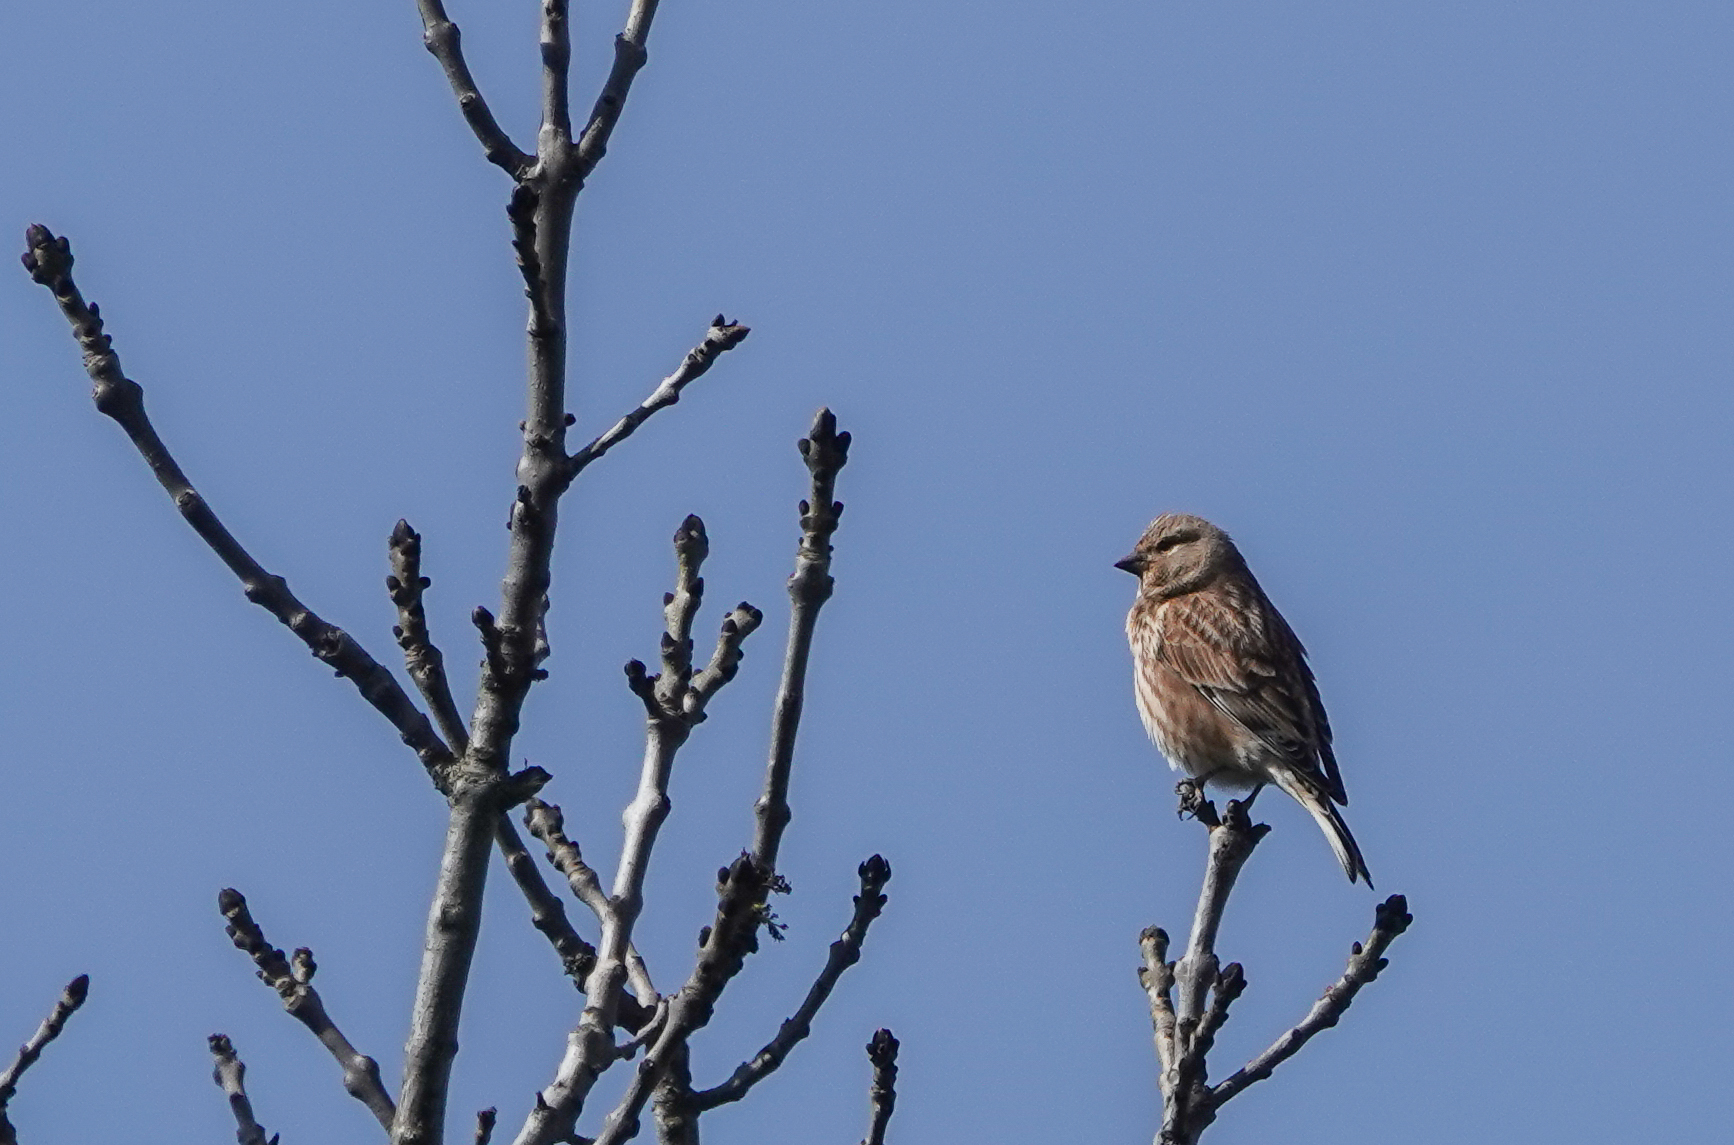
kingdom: Animalia
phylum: Chordata
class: Aves
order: Passeriformes
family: Fringillidae
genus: Linaria
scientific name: Linaria cannabina
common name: Common linnet
